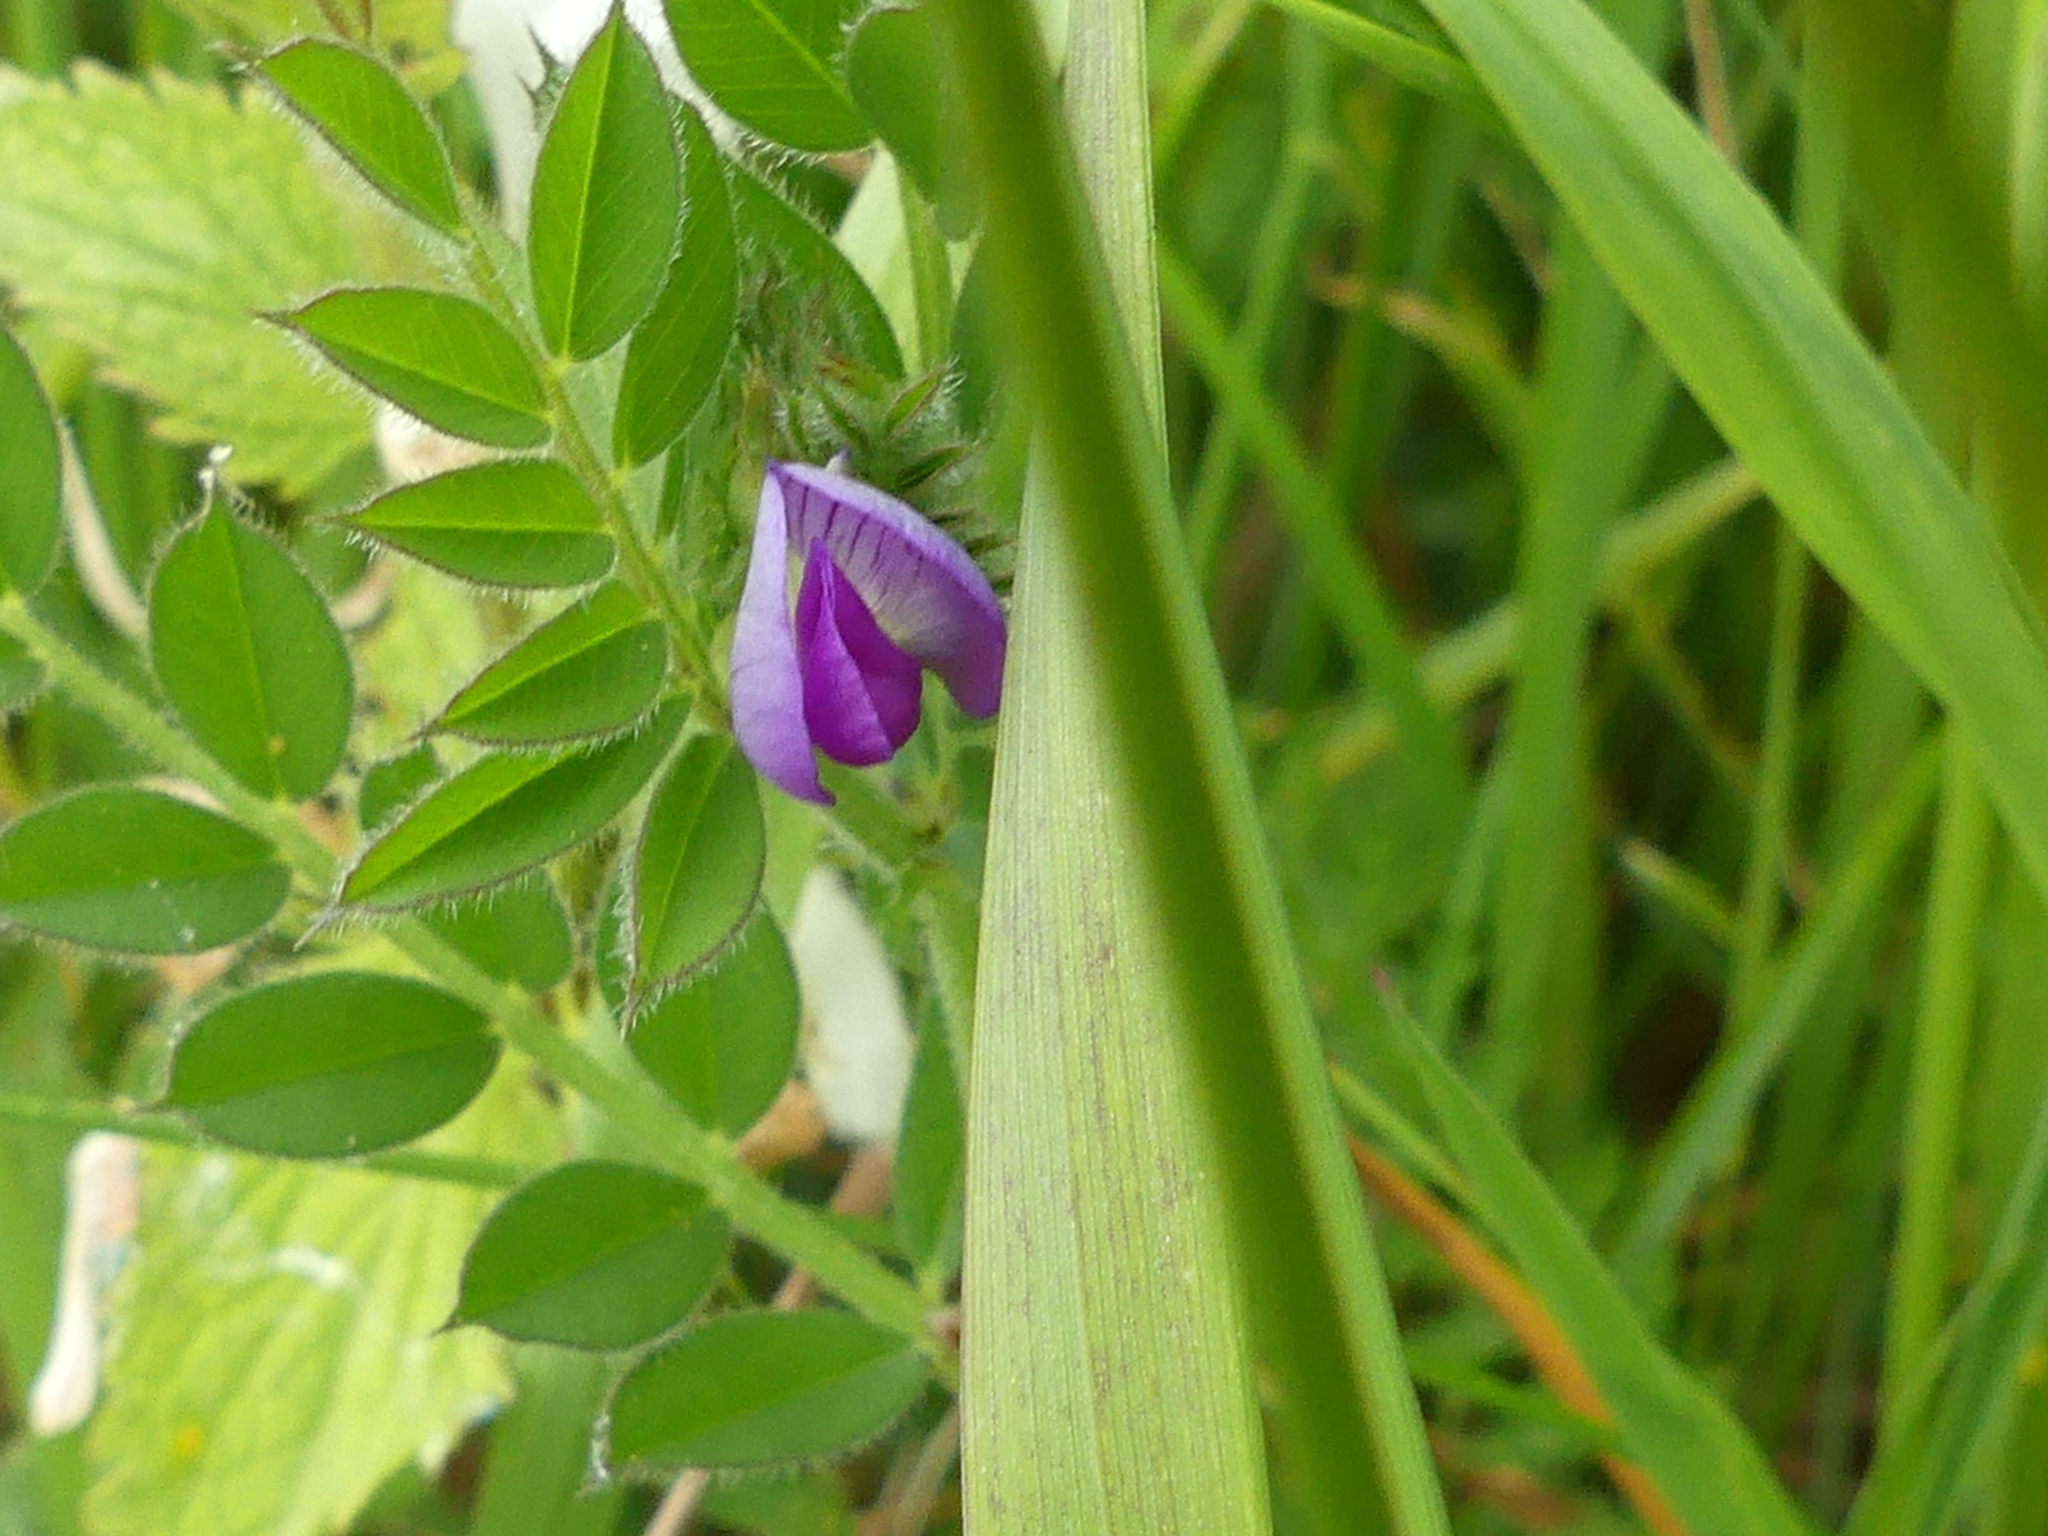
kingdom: Plantae
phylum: Tracheophyta
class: Magnoliopsida
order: Fabales
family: Fabaceae
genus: Vicia
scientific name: Vicia sativa
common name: Garden vetch
